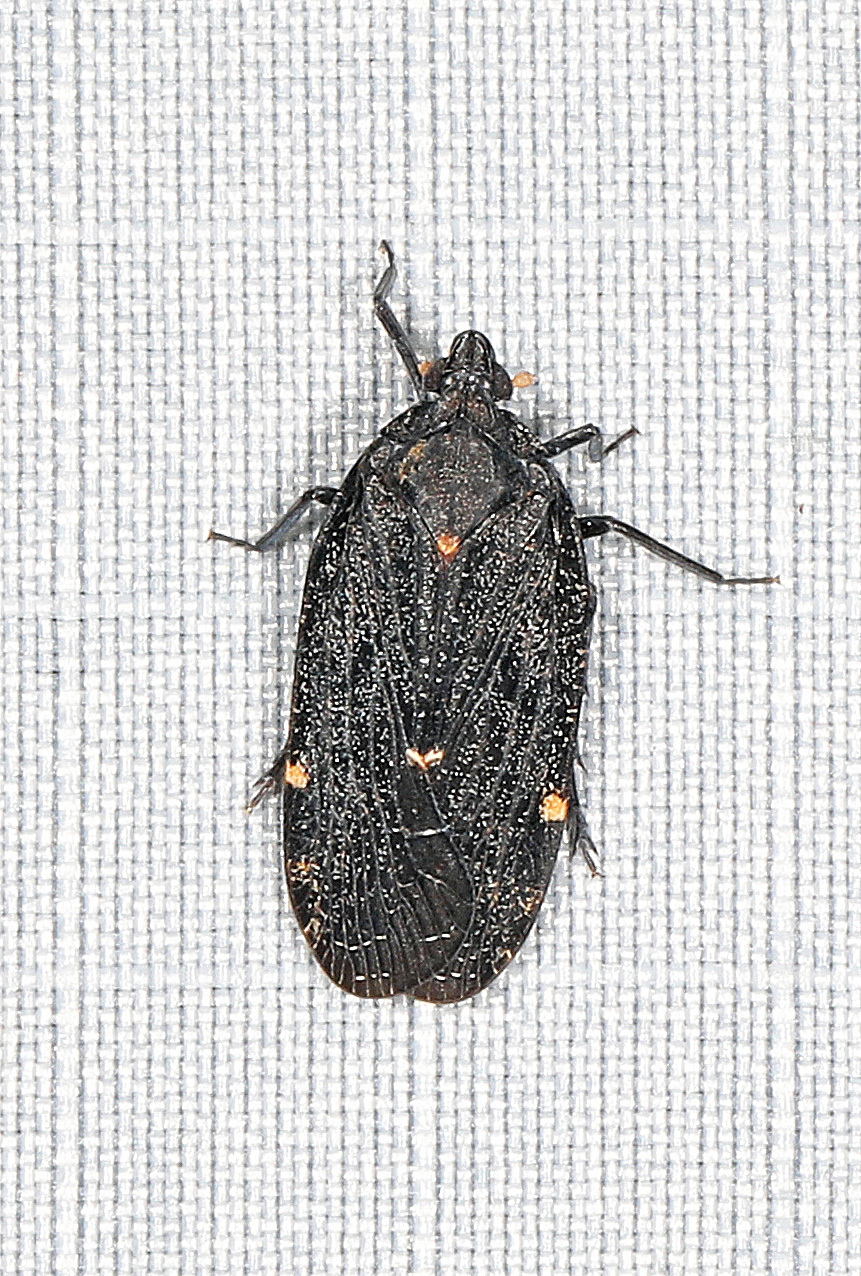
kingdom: Animalia
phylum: Arthropoda
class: Insecta
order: Hemiptera
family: Achilidae
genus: Cixidia
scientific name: Cixidia opaca
